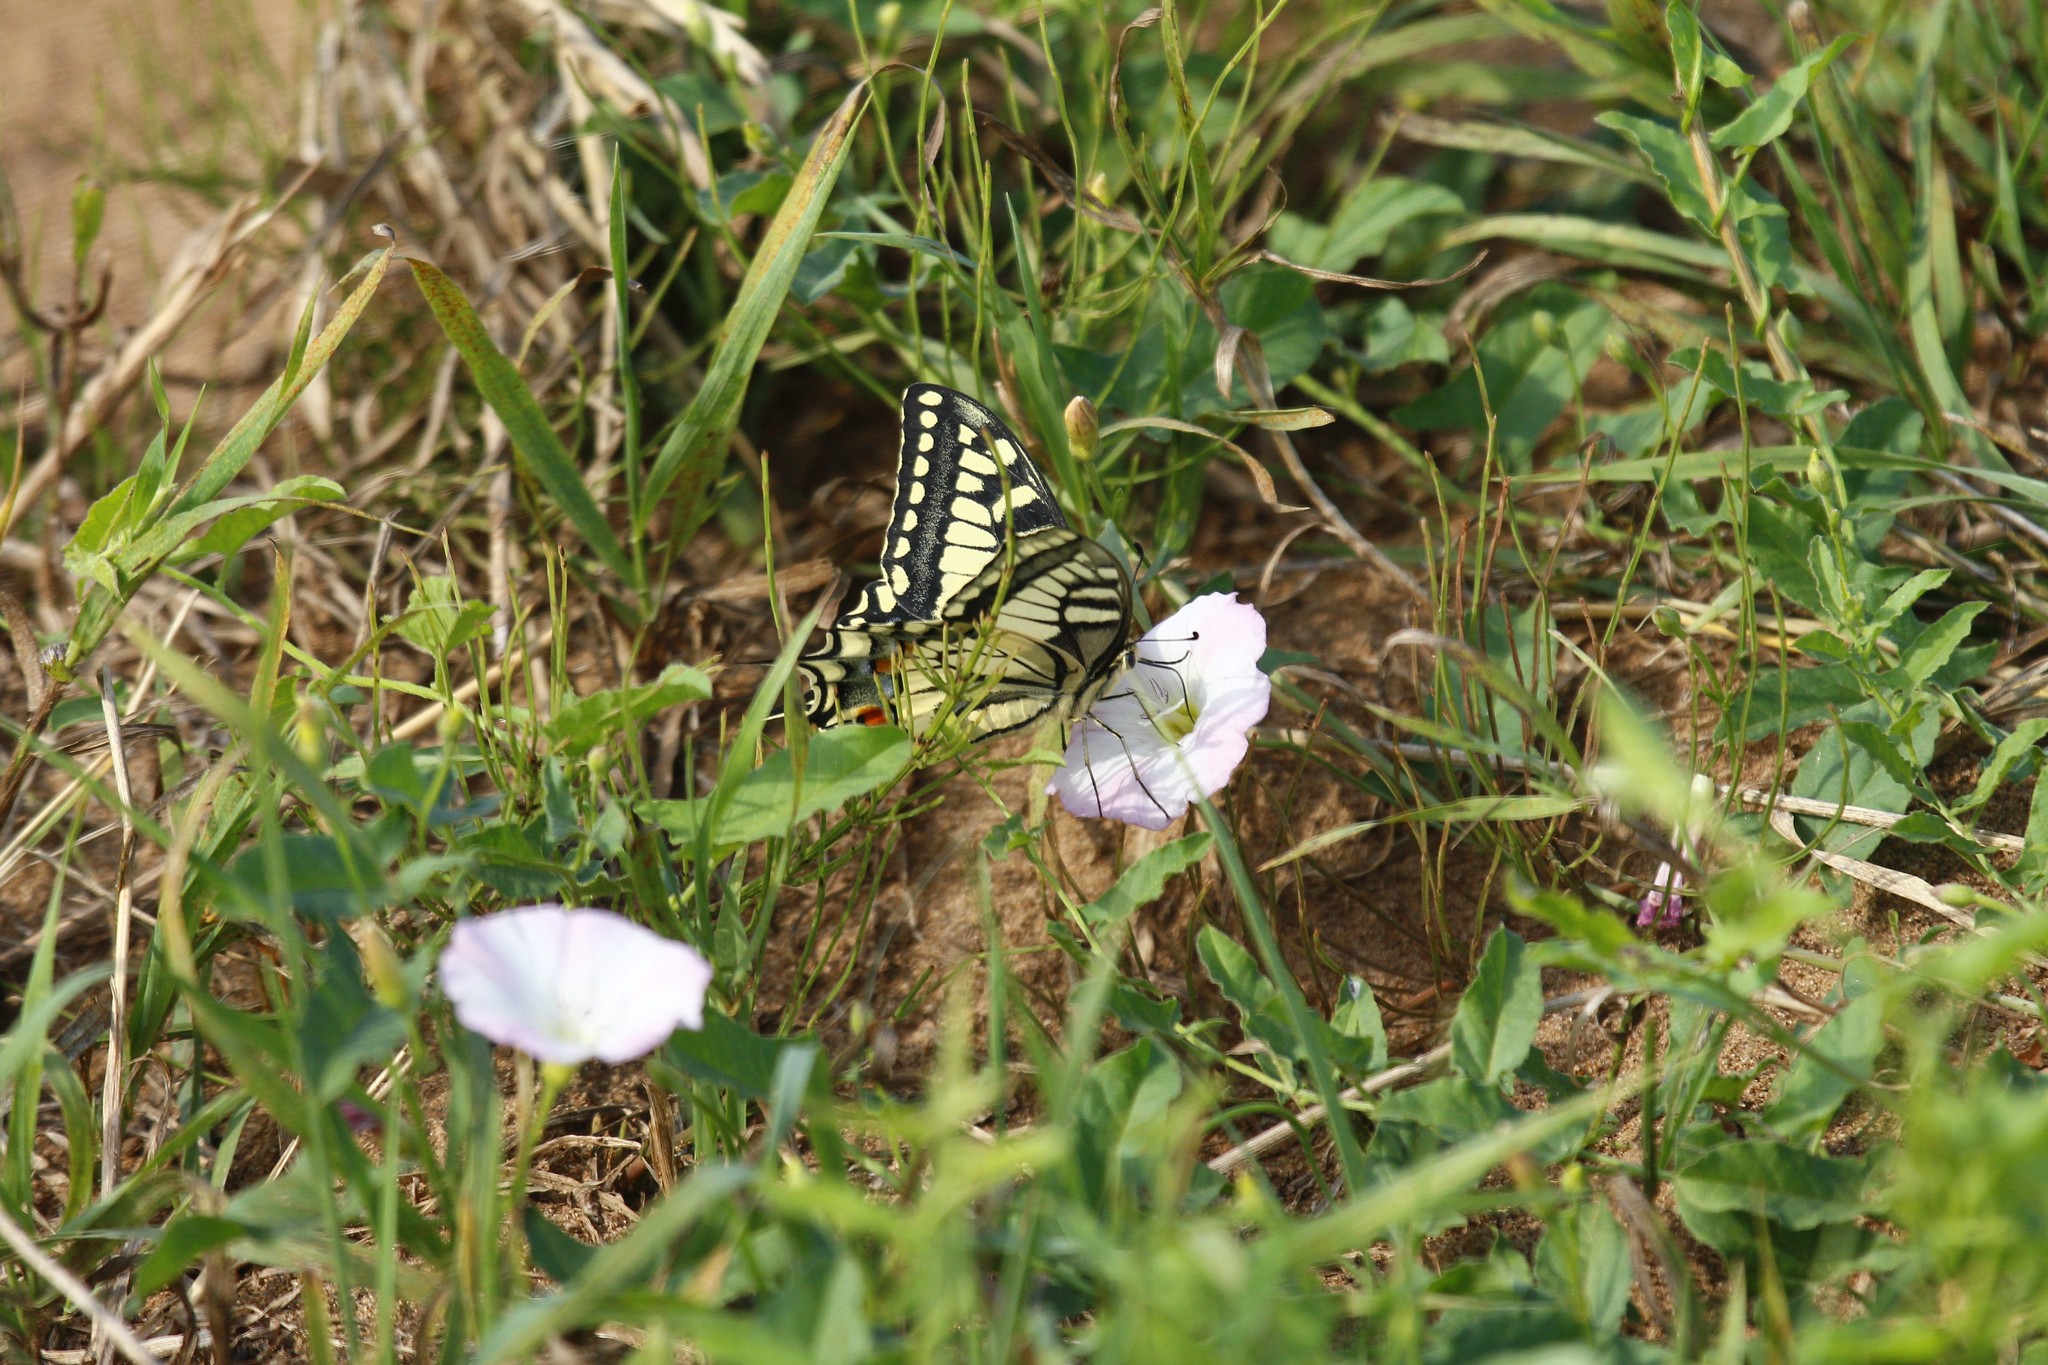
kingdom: Animalia
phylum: Arthropoda
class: Insecta
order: Lepidoptera
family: Papilionidae
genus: Papilio
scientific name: Papilio machaon
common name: Swallowtail
